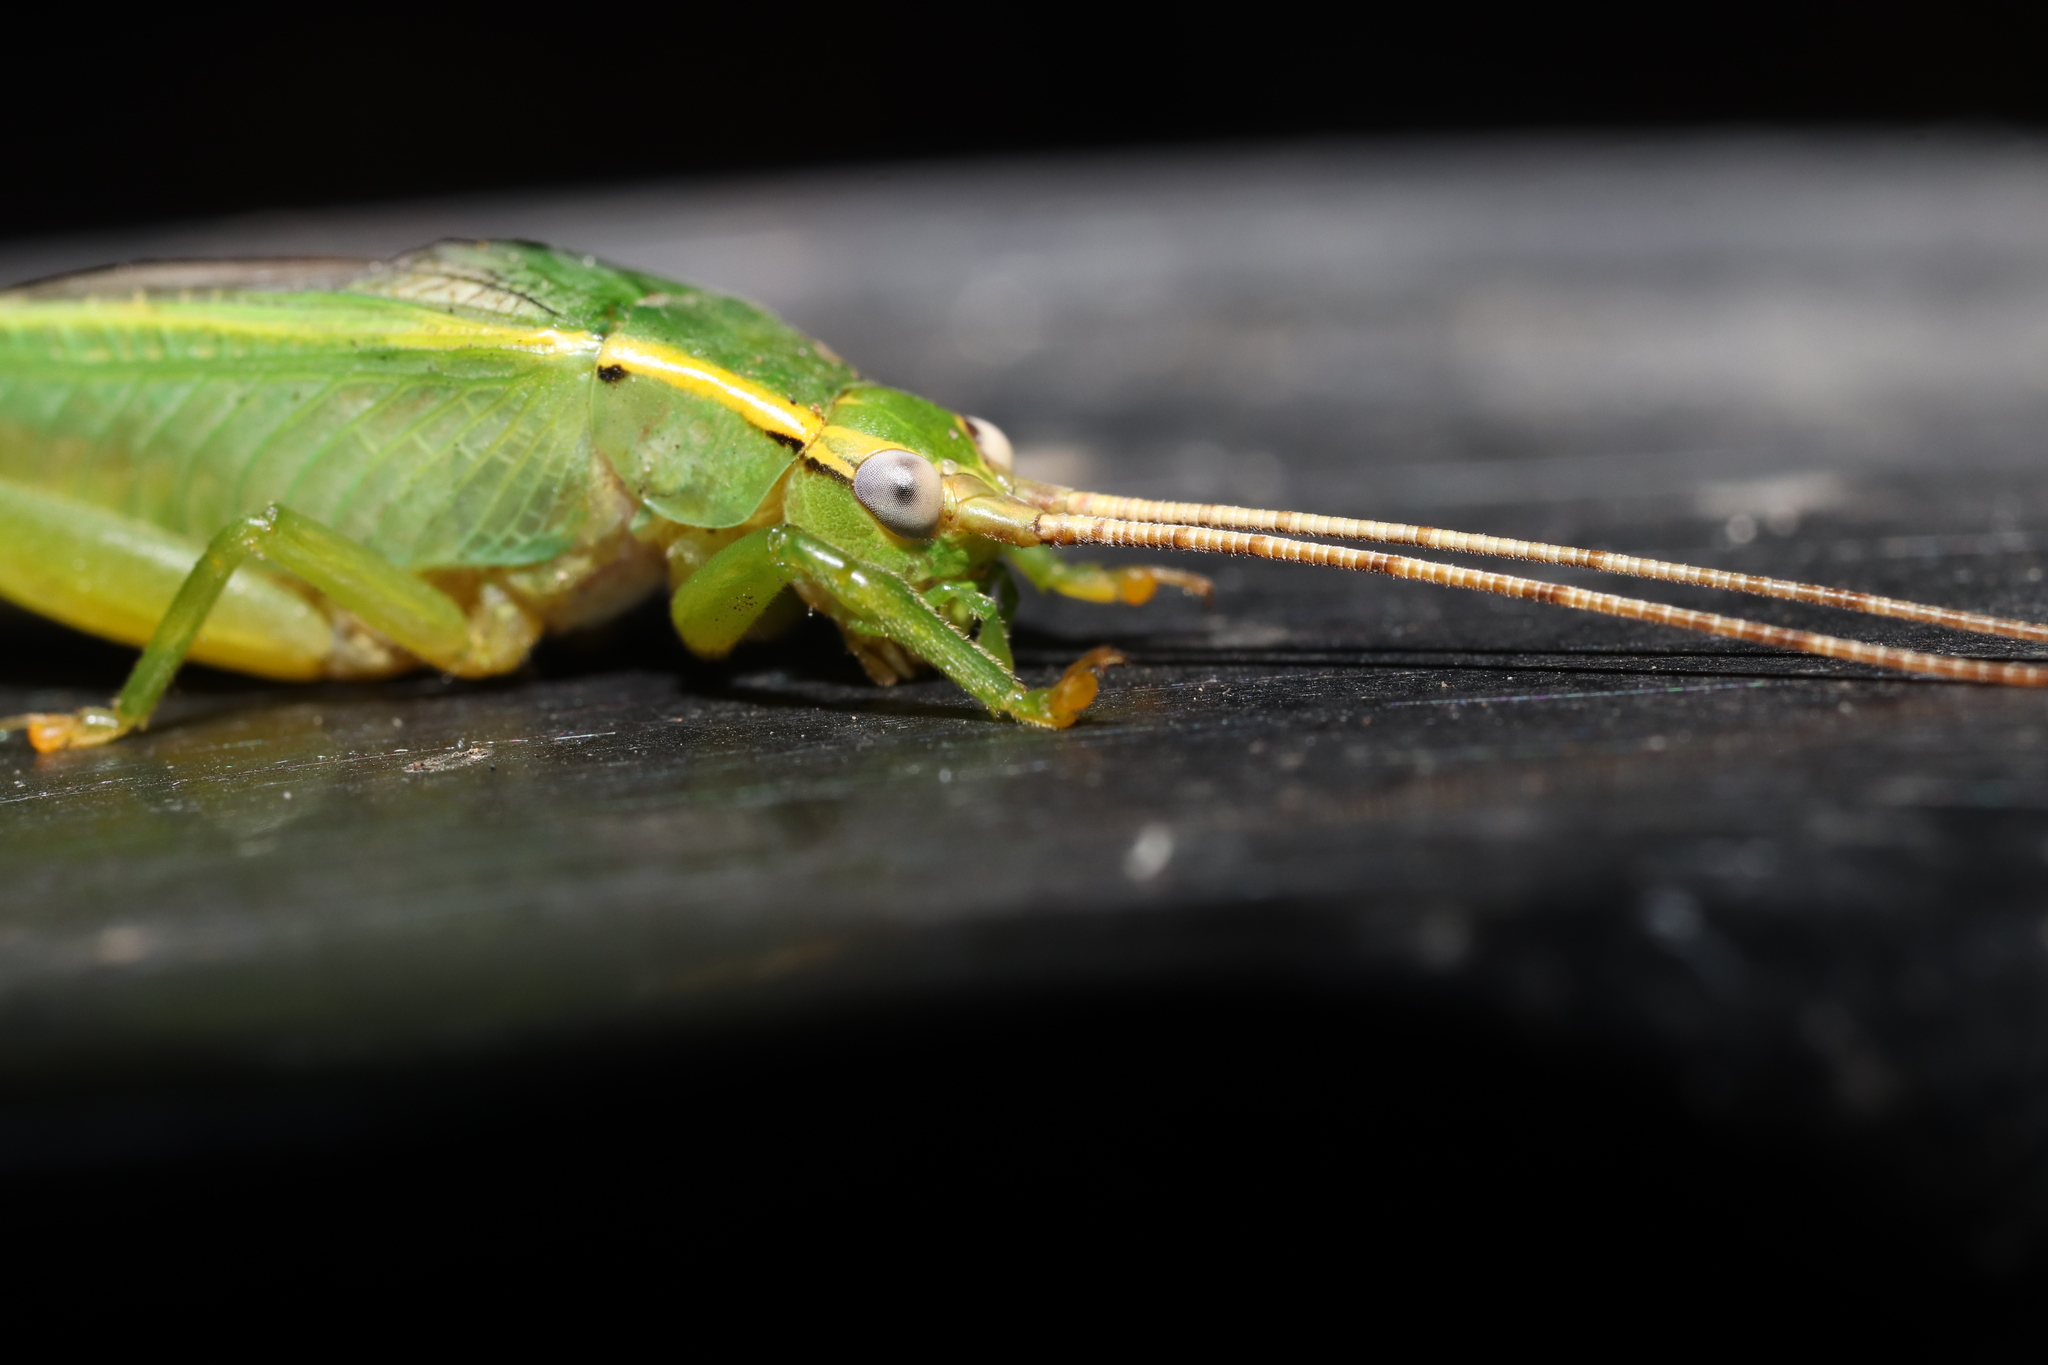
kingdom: Animalia
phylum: Arthropoda
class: Insecta
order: Orthoptera
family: Gryllidae
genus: Truljalia
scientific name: Truljalia hibinonis
